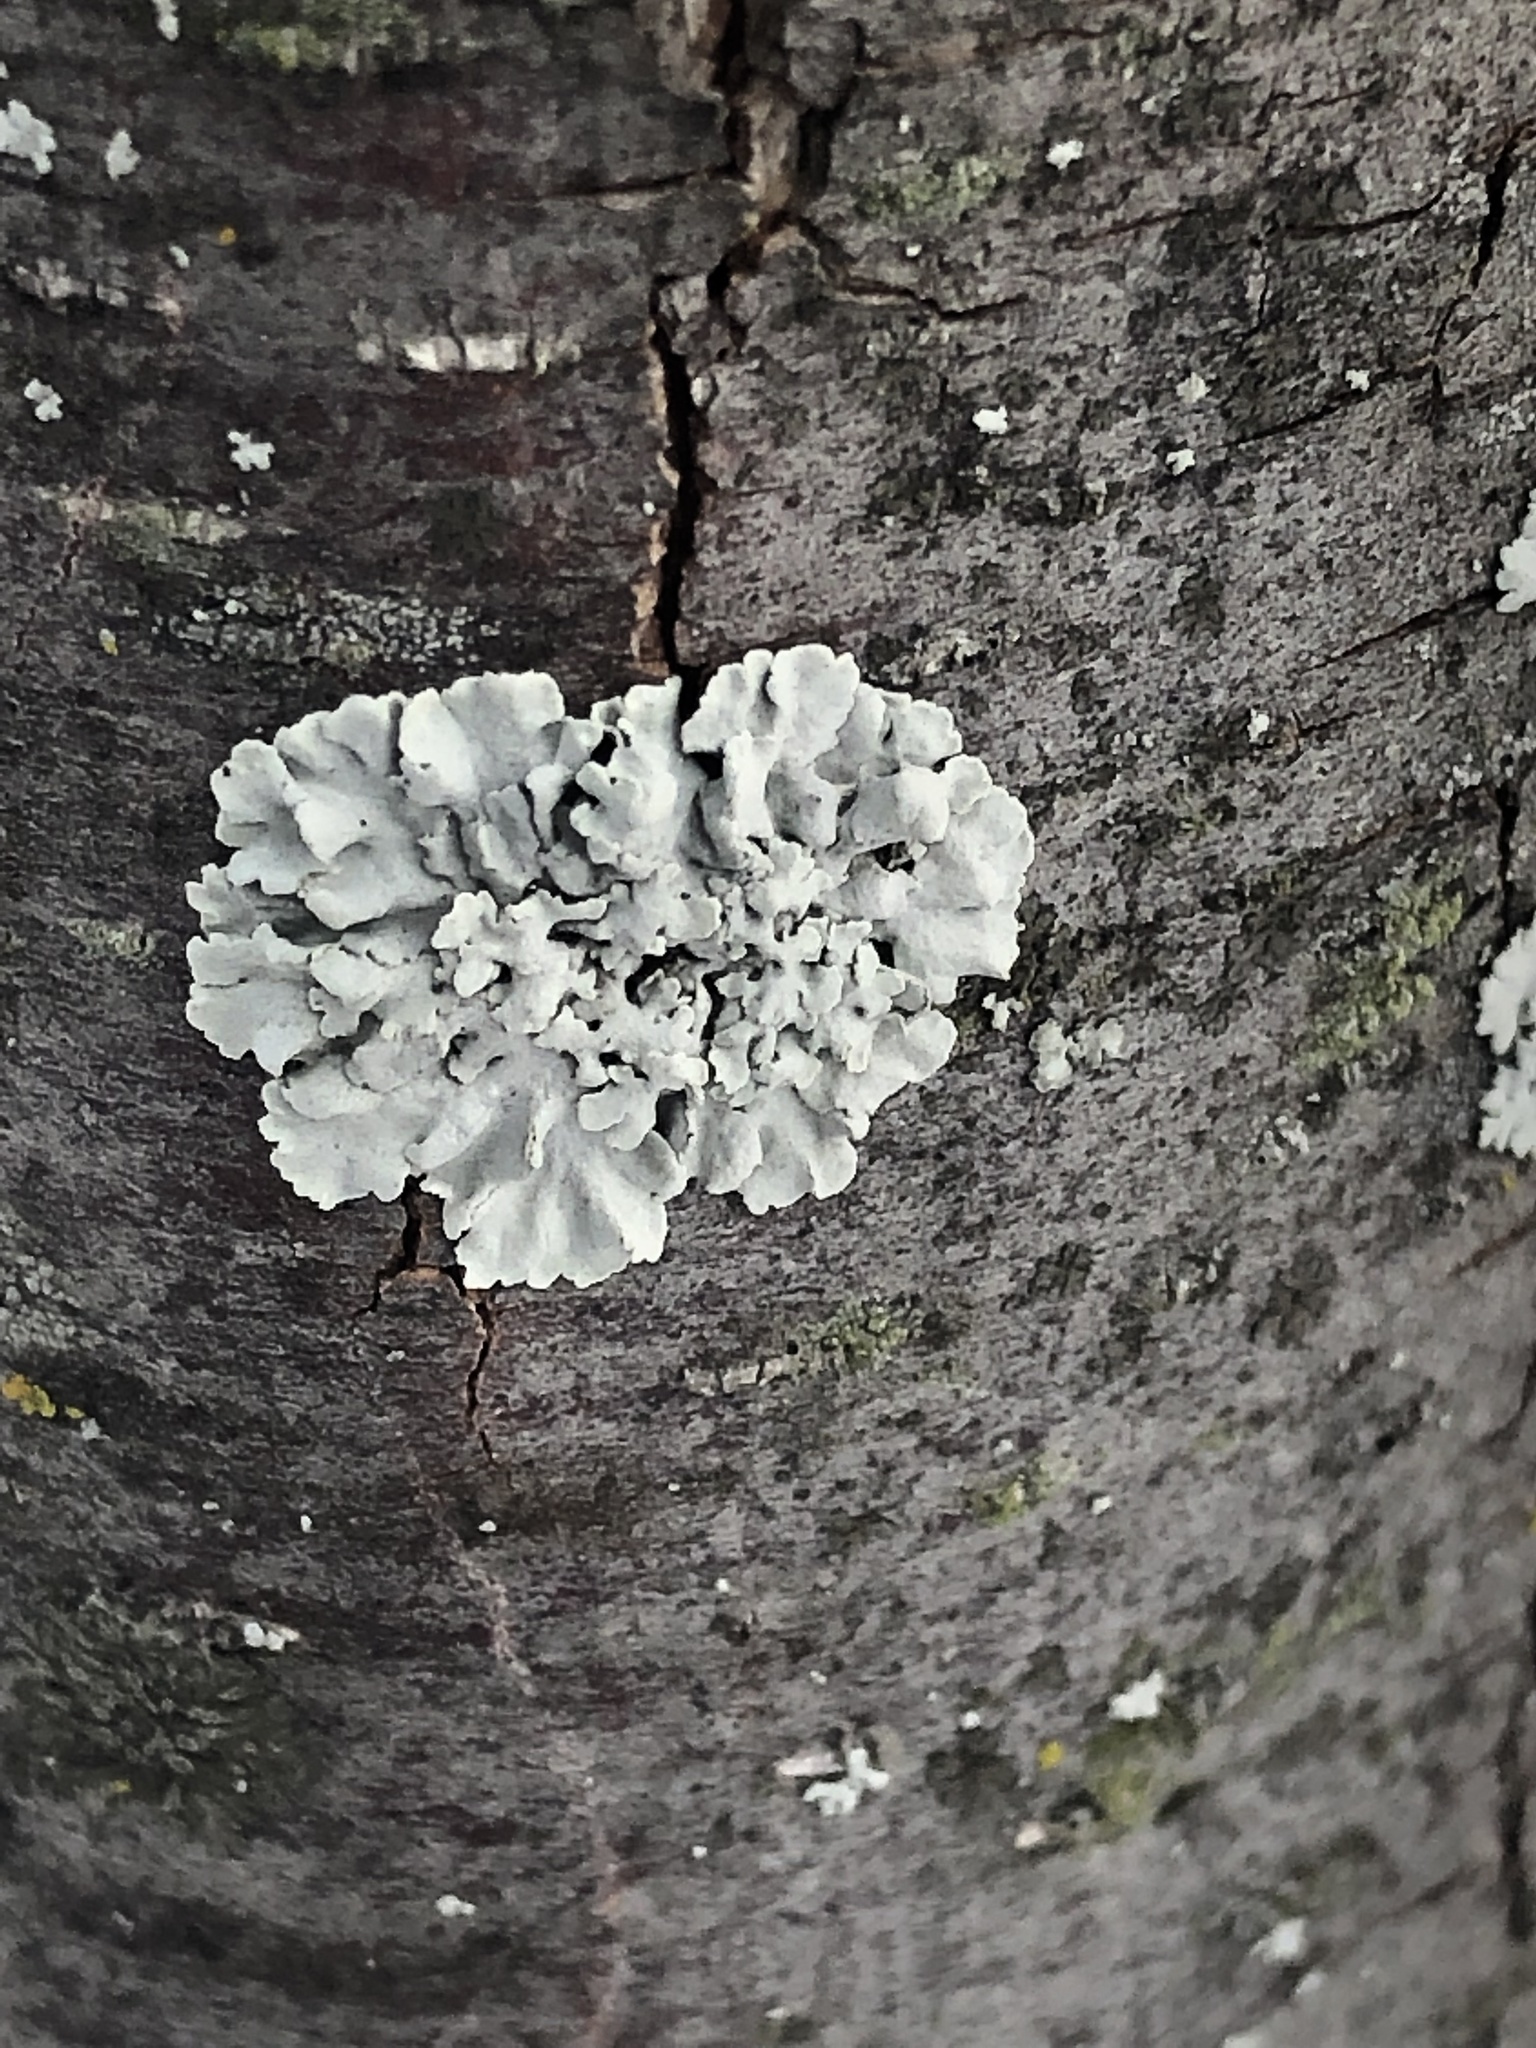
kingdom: Fungi
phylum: Ascomycota
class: Lecanoromycetes
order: Lecanorales
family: Parmeliaceae
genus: Flavoparmelia
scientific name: Flavoparmelia caperata
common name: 40-mile per hour lichen
